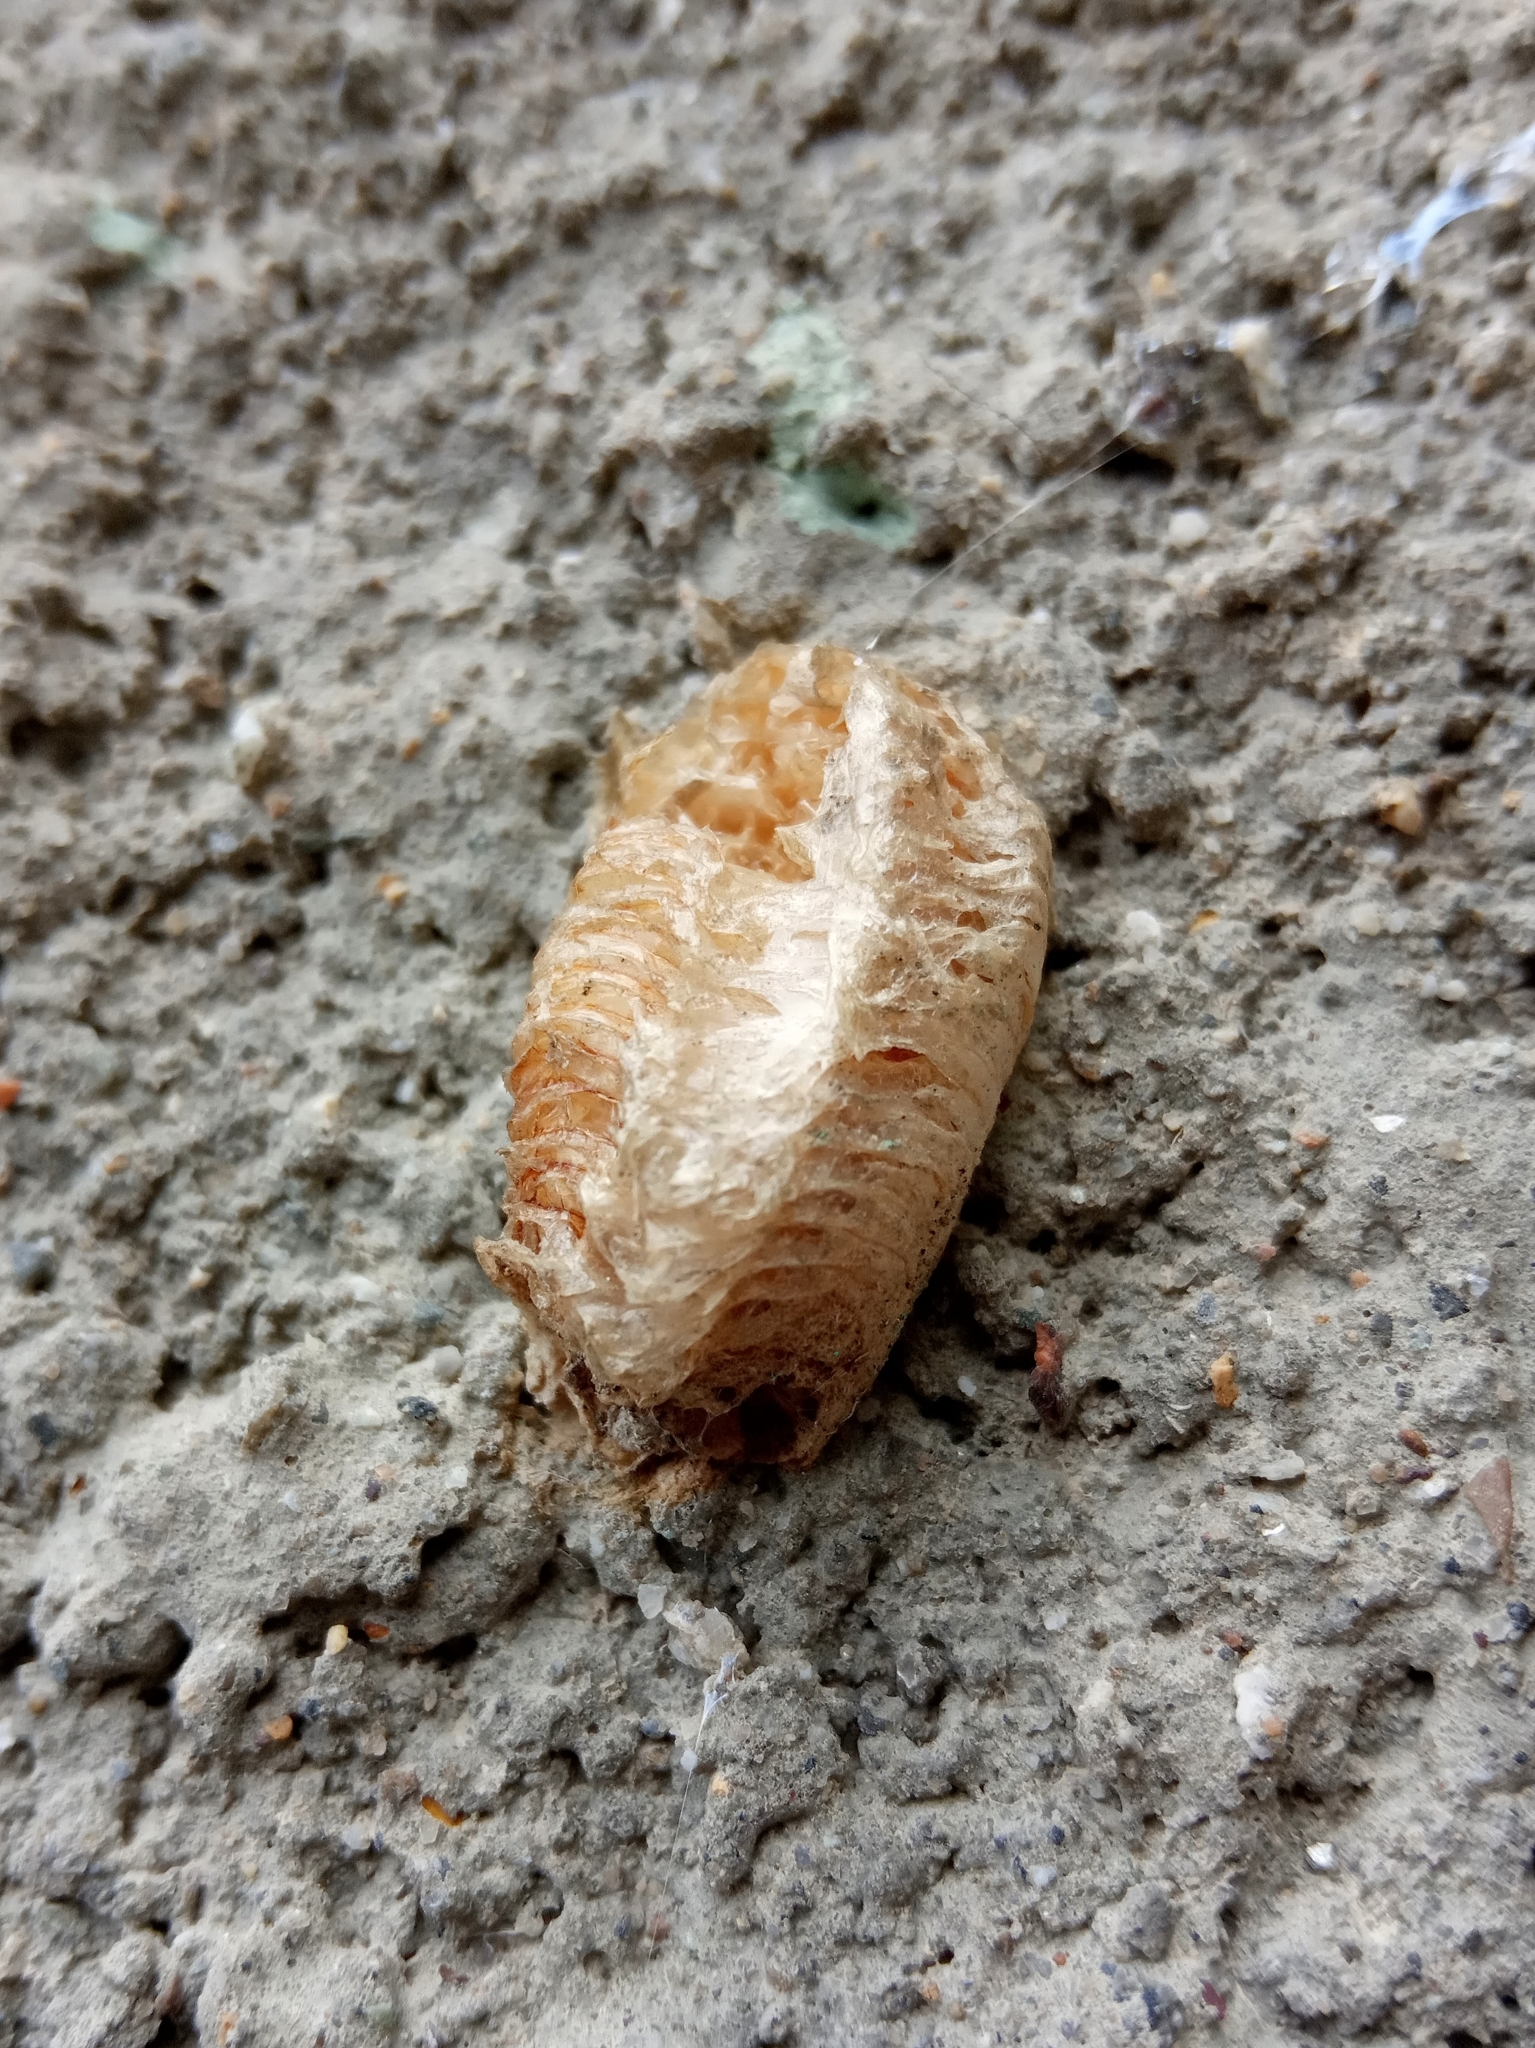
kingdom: Animalia
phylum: Arthropoda
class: Insecta
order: Mantodea
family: Mantidae
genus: Mantis
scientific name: Mantis religiosa
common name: Praying mantis
